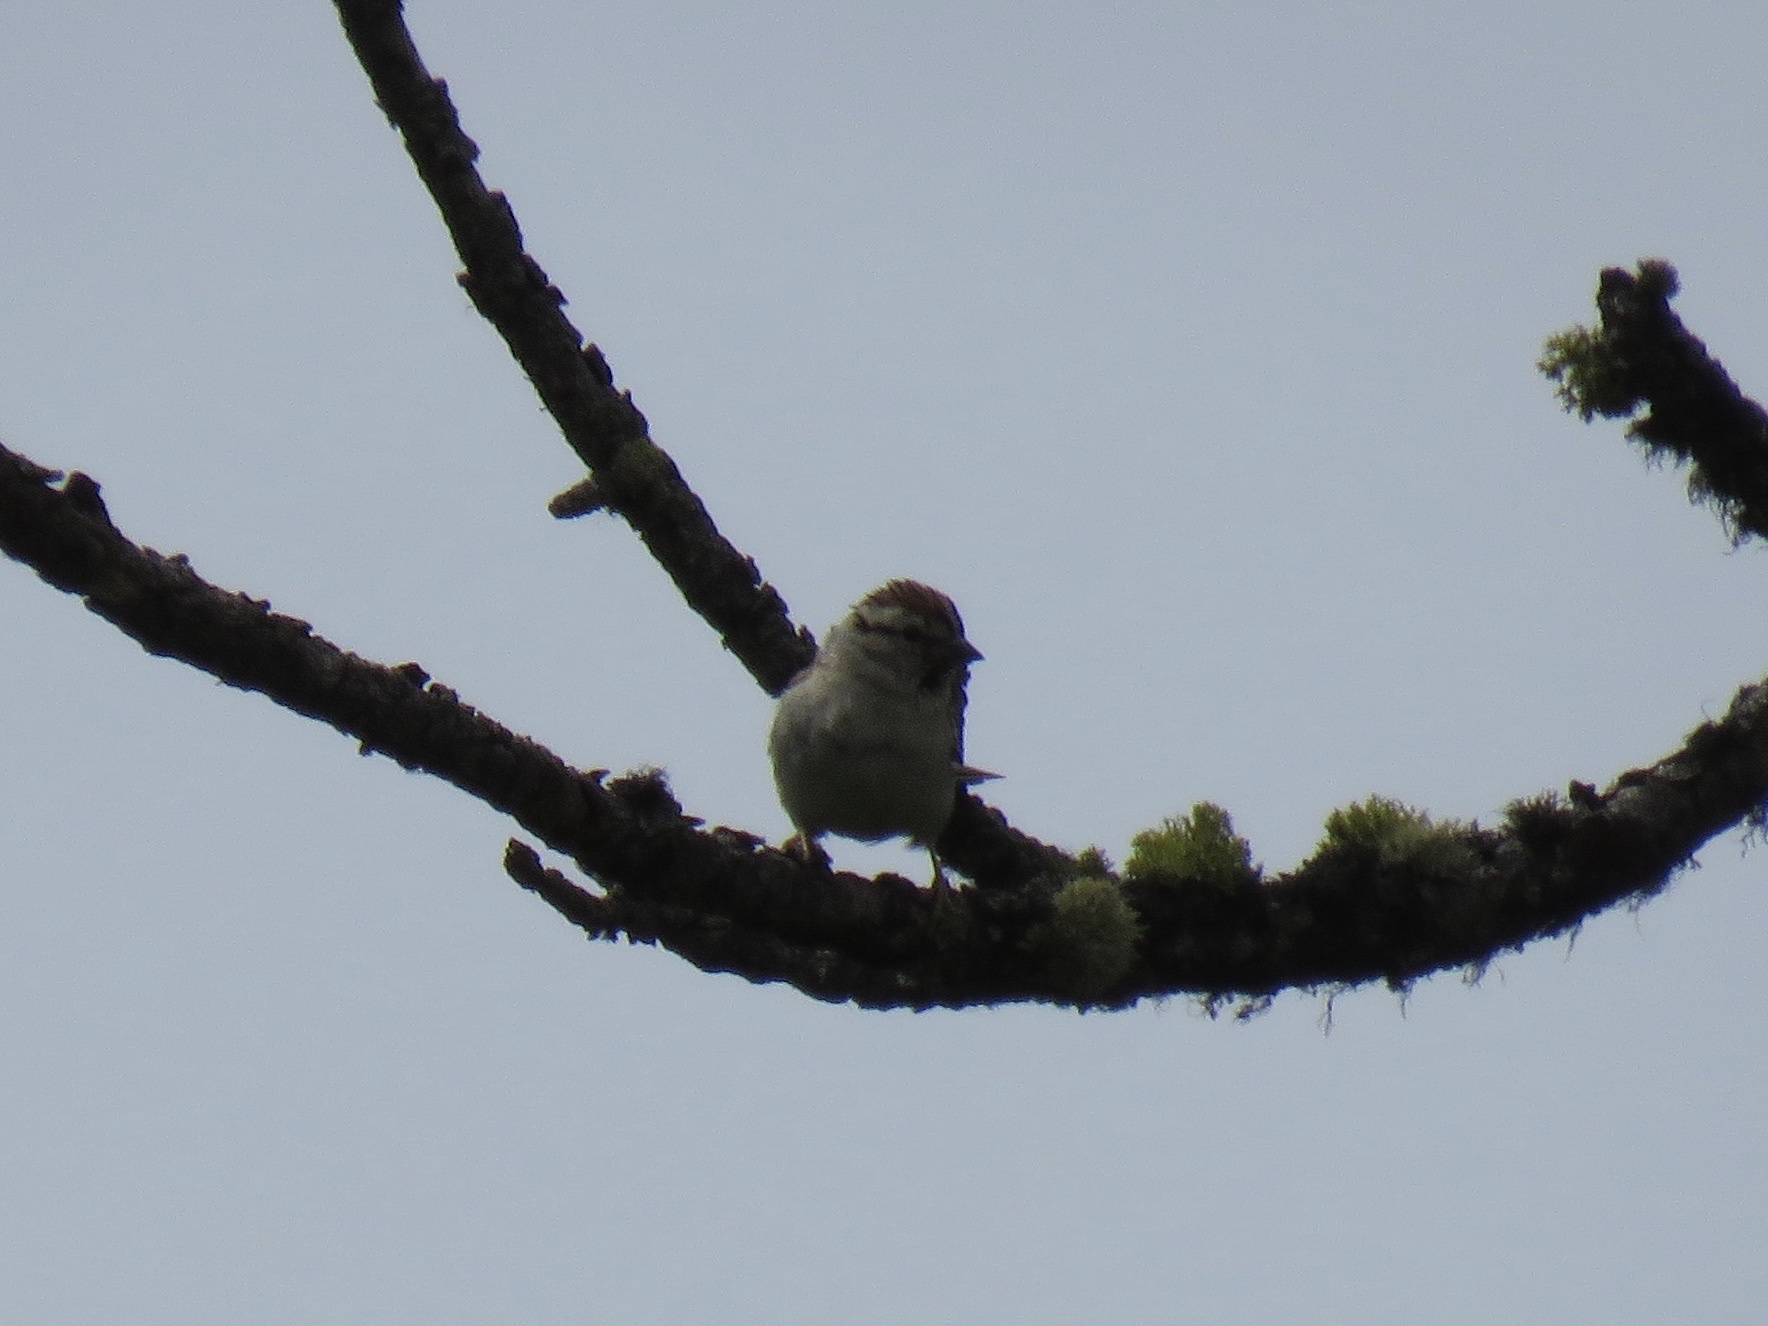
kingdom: Animalia
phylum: Chordata
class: Aves
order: Passeriformes
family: Passerellidae
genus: Spizella
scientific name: Spizella passerina
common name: Chipping sparrow
